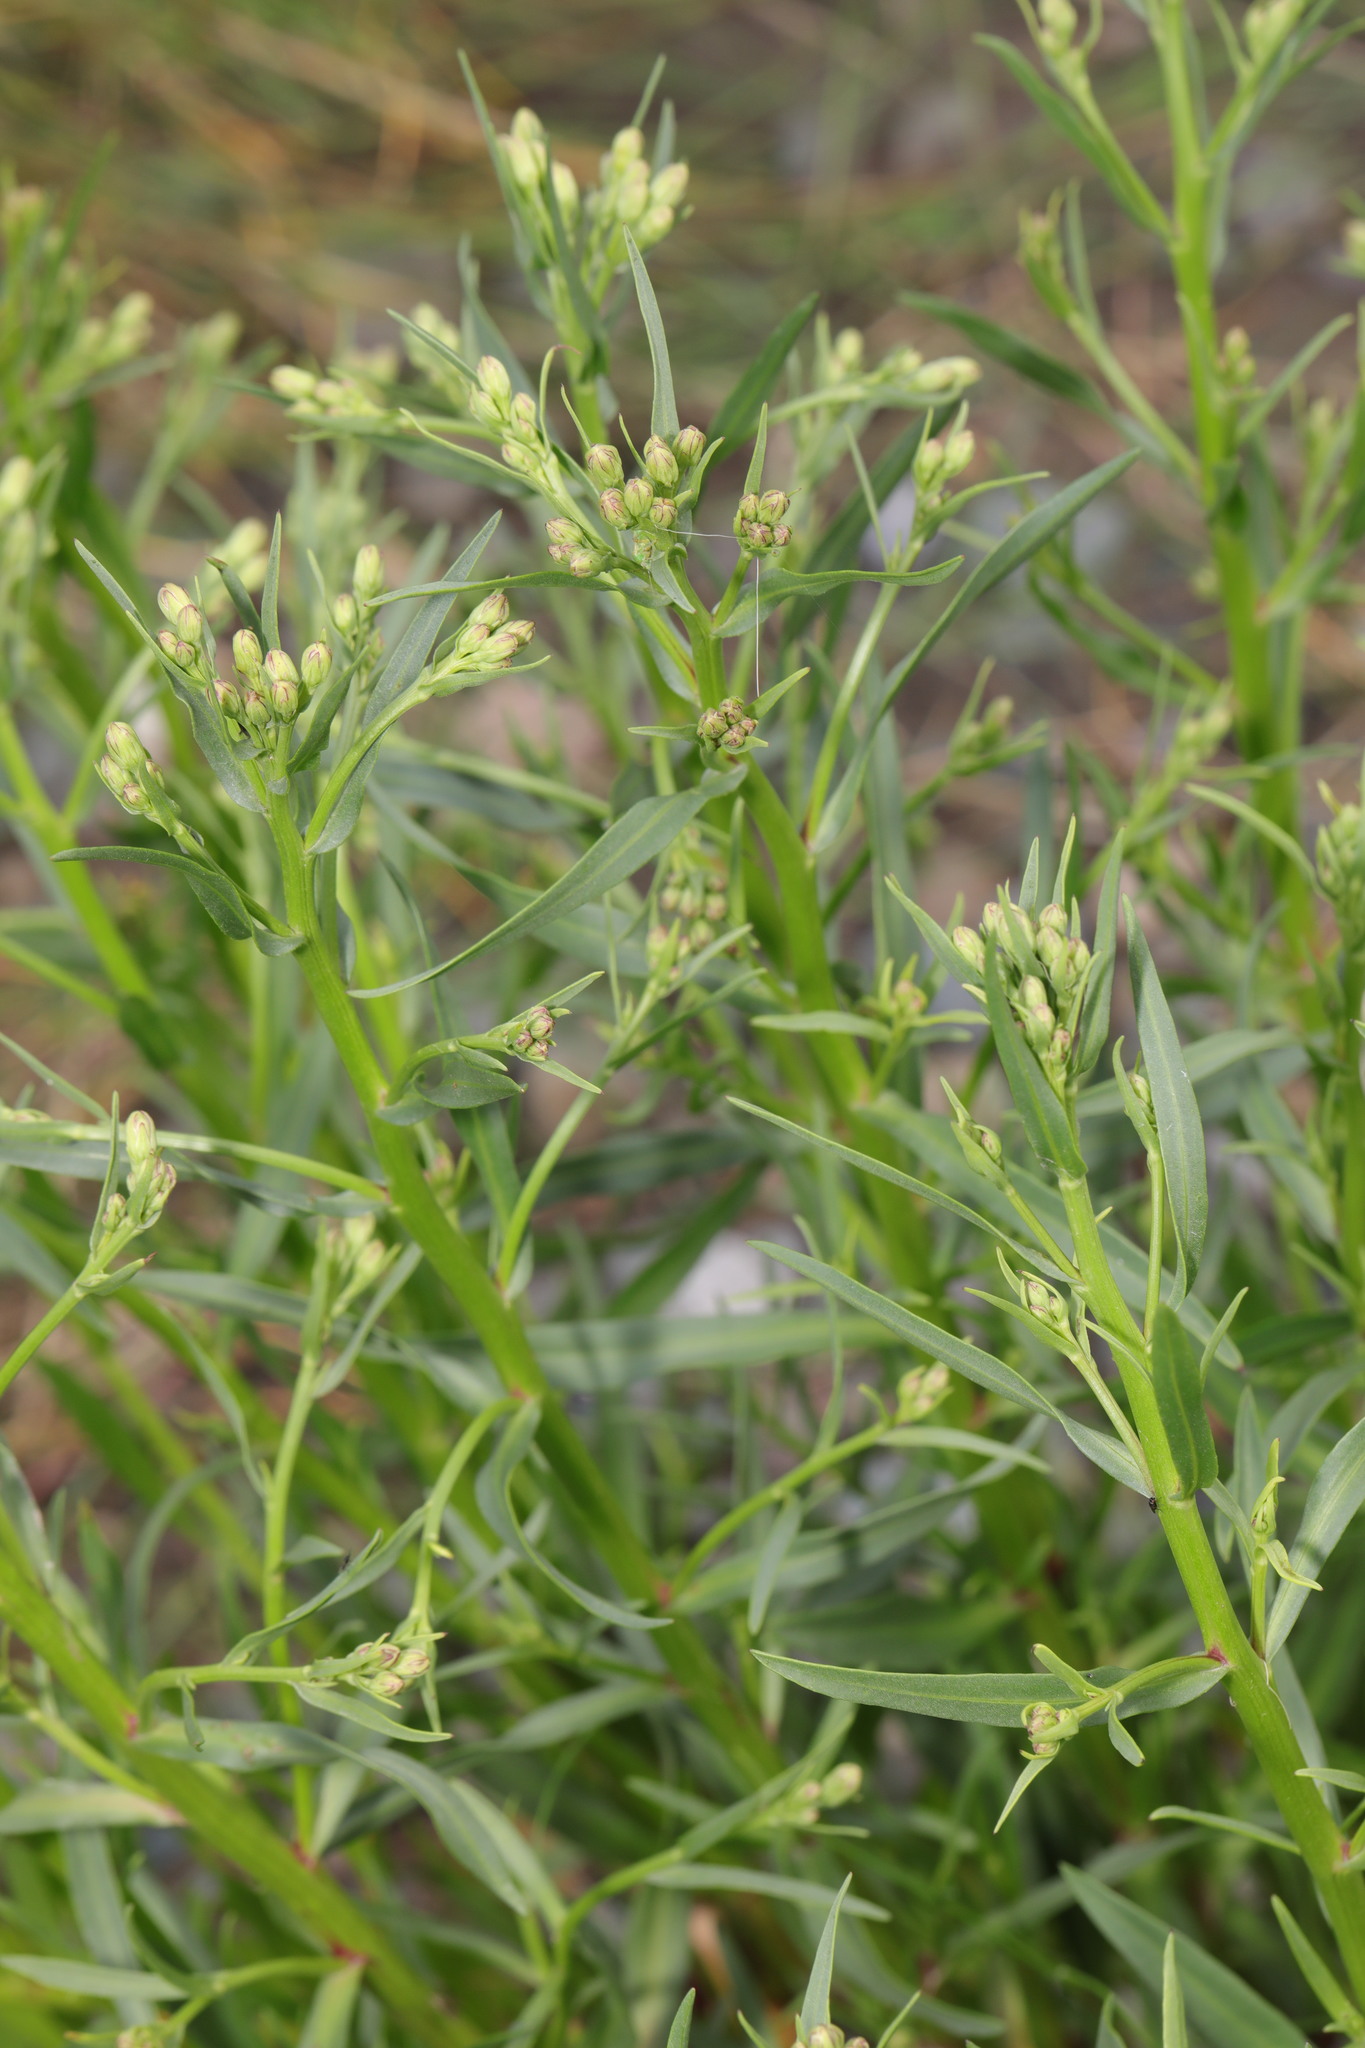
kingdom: Plantae
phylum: Tracheophyta
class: Magnoliopsida
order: Asterales
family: Asteraceae
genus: Tripolium
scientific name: Tripolium pannonicum
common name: Sea aster
